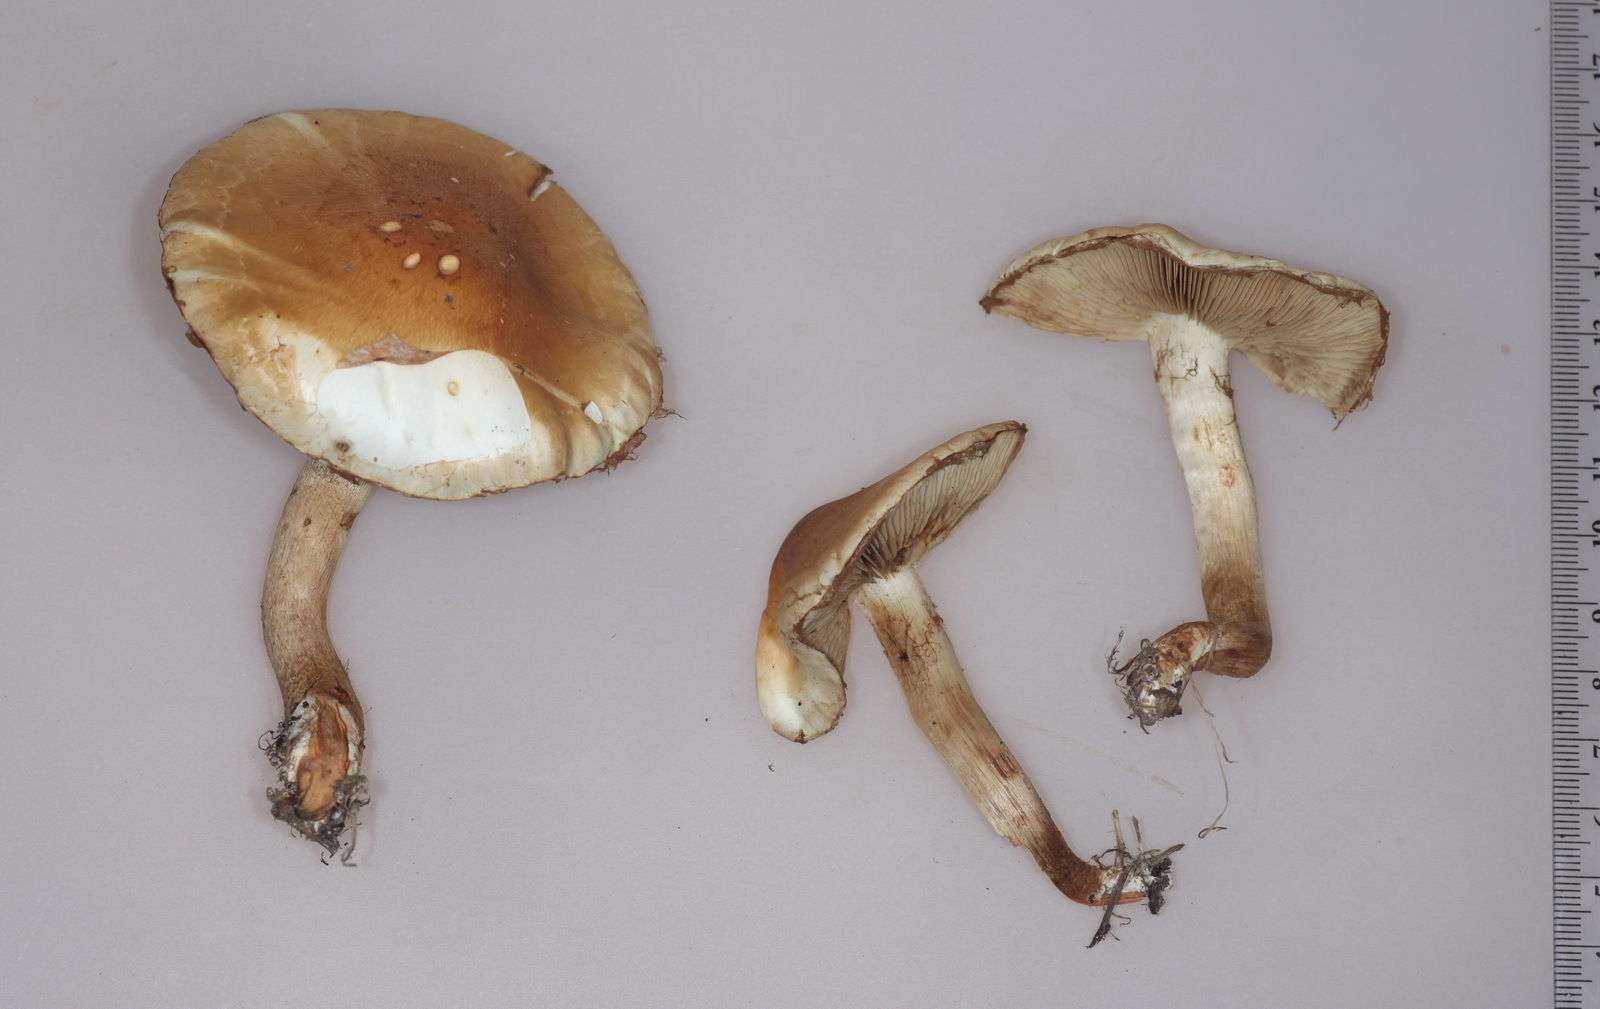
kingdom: Fungi
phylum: Basidiomycota
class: Agaricomycetes
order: Agaricales
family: Strophariaceae
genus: Pholiota
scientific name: Pholiota mixta
